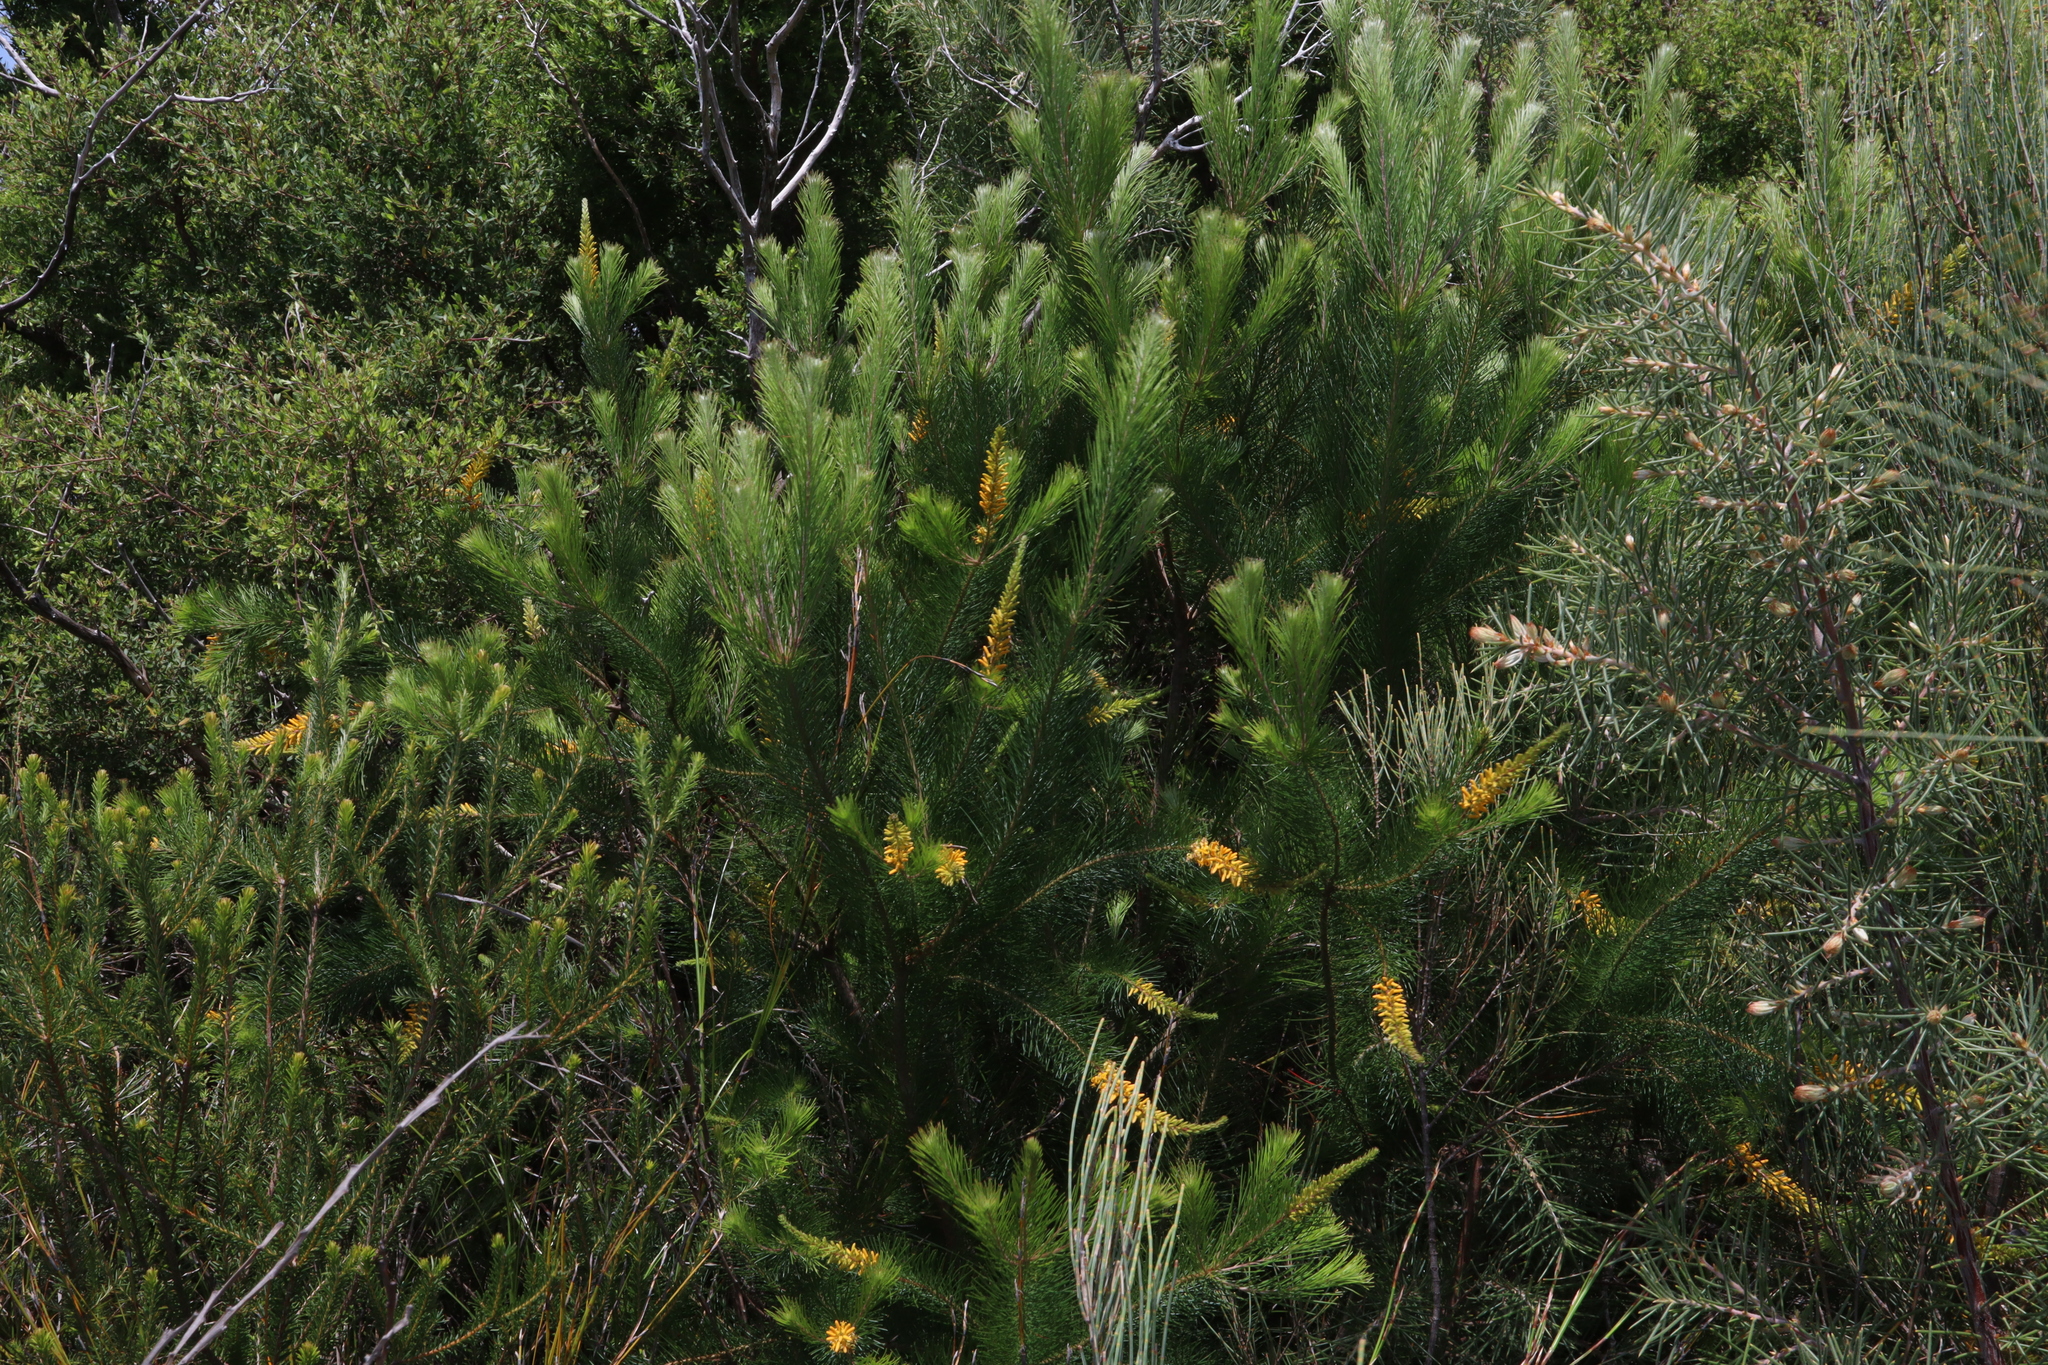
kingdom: Plantae
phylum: Tracheophyta
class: Magnoliopsida
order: Proteales
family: Proteaceae
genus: Persoonia
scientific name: Persoonia pinifolia
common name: Pine-leaf geebung
